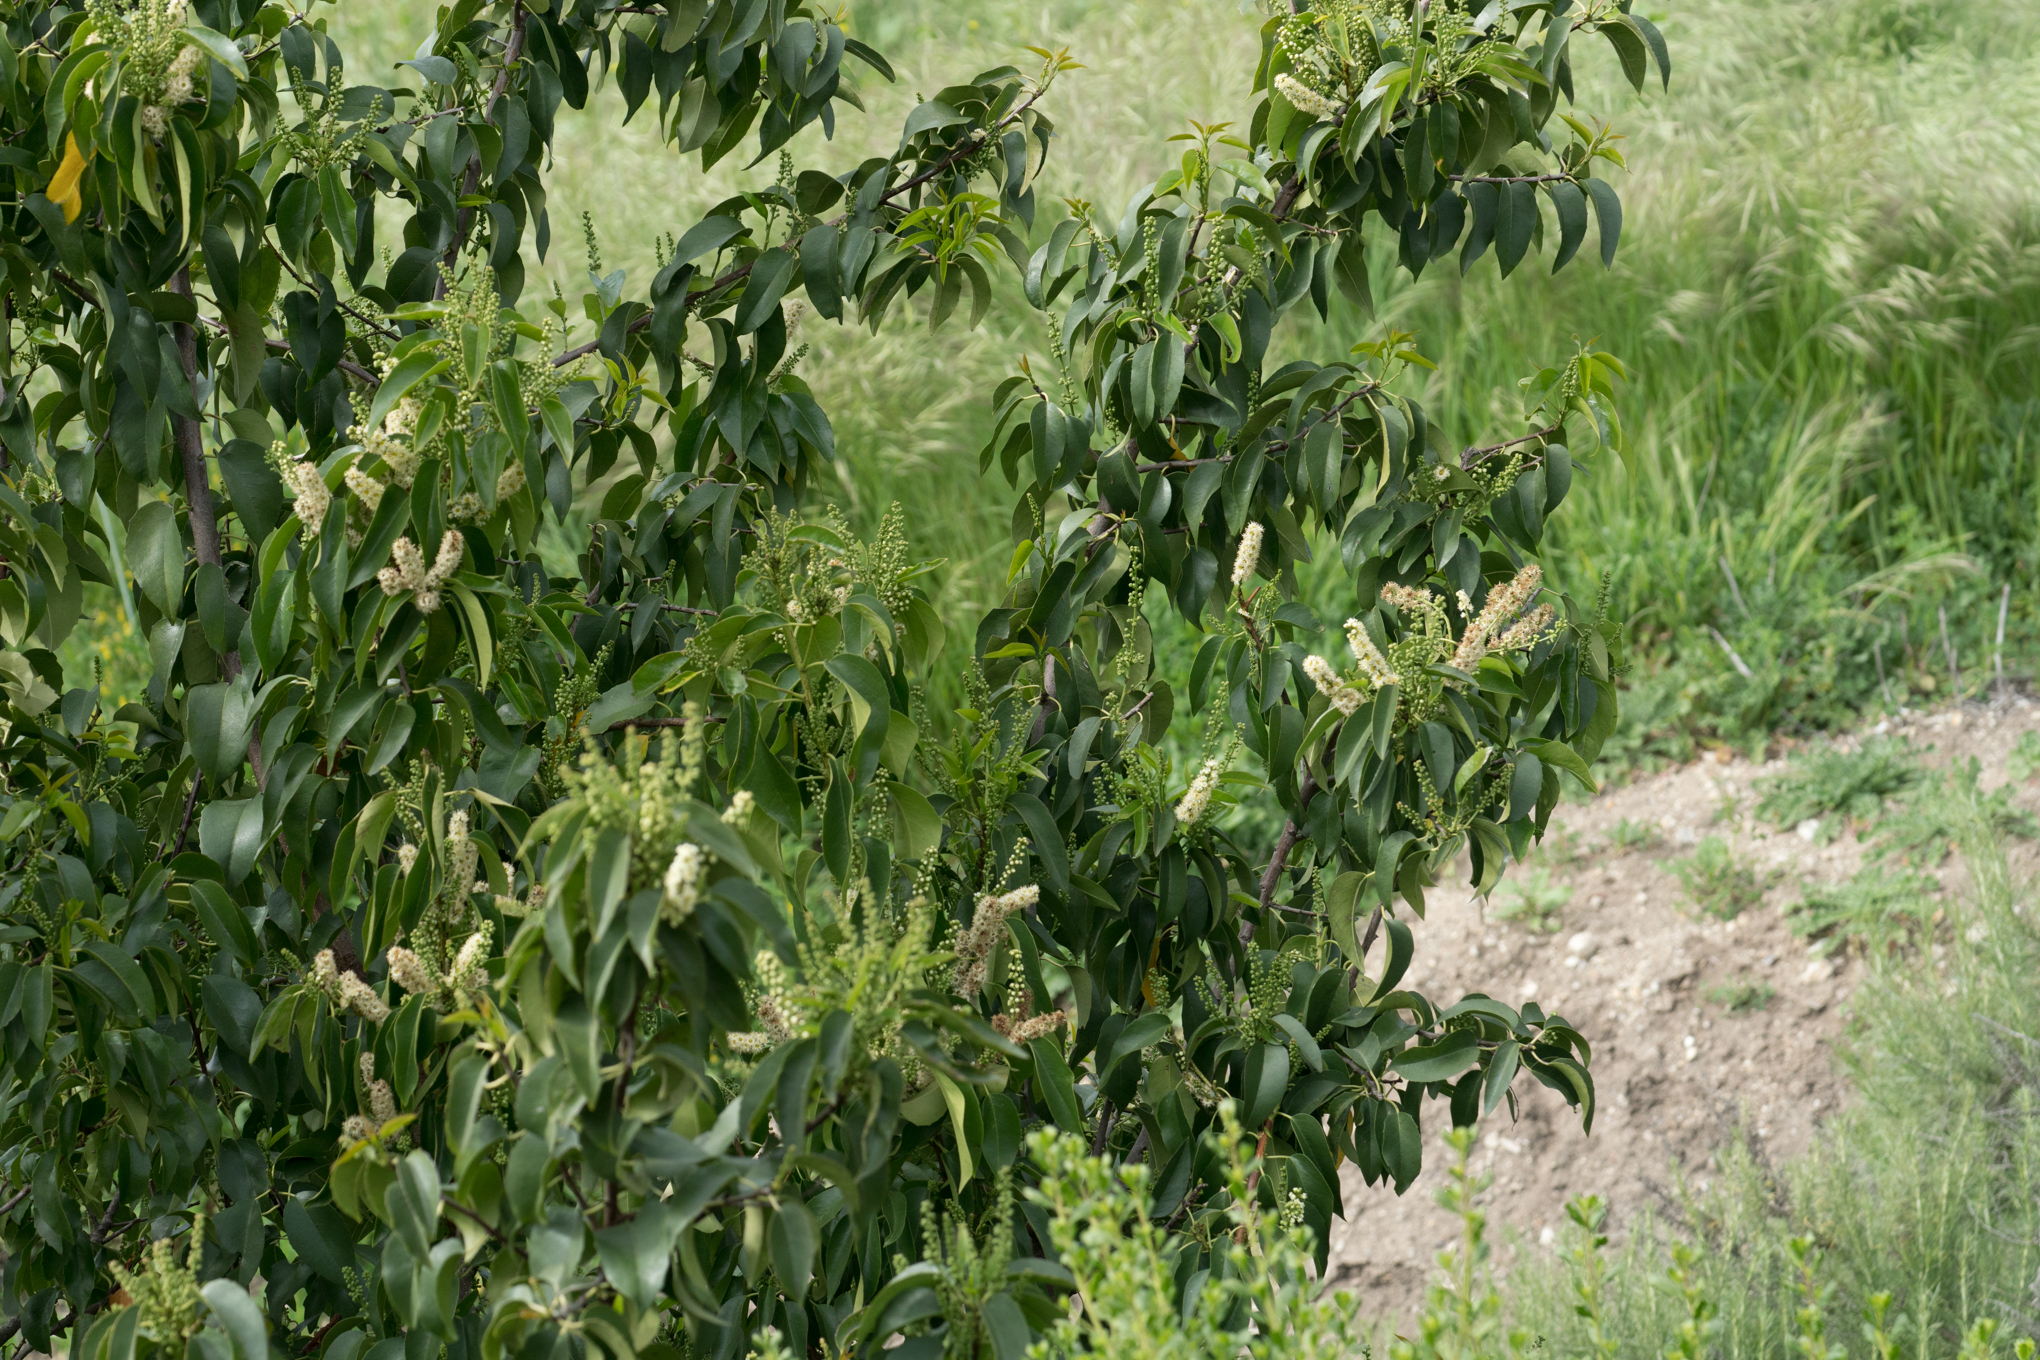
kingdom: Plantae
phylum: Tracheophyta
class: Magnoliopsida
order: Rosales
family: Rosaceae
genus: Prunus
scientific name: Prunus ilicifolia
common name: Hollyleaf cherry
